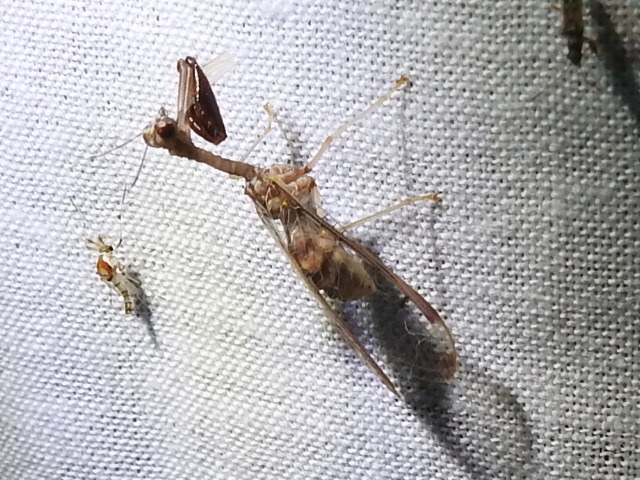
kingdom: Animalia
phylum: Arthropoda
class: Insecta
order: Neuroptera
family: Mantispidae
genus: Dicromantispa
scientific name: Dicromantispa interrupta
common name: Four-spotted mantidfly
